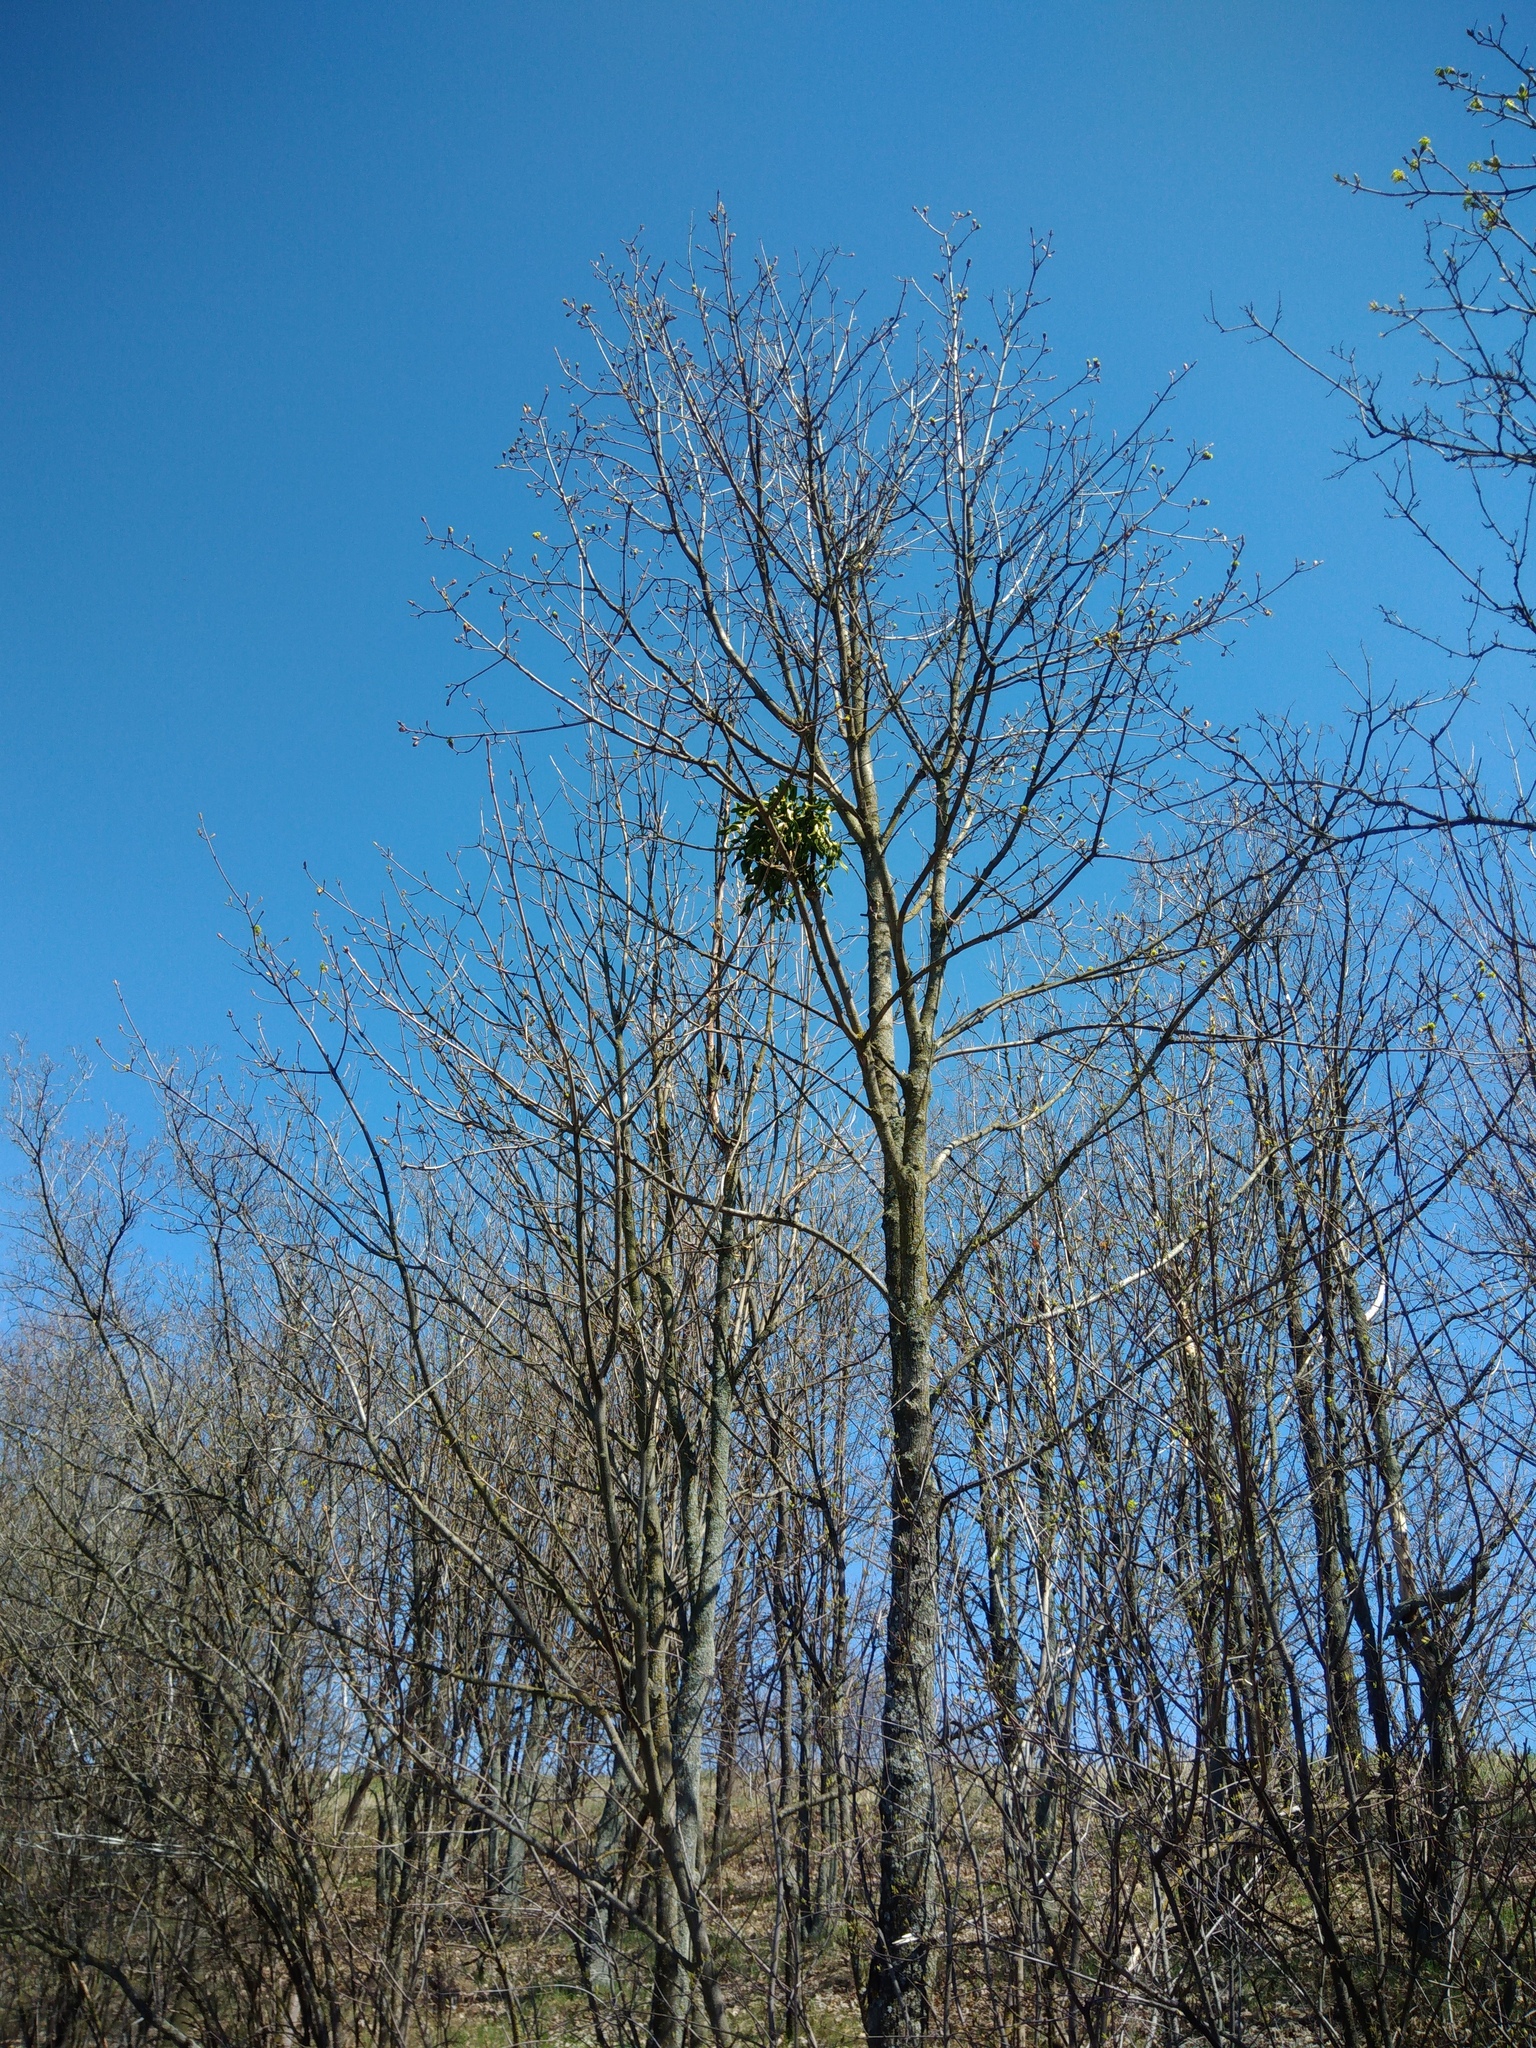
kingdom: Plantae
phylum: Tracheophyta
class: Magnoliopsida
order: Santalales
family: Viscaceae
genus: Viscum
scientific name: Viscum album
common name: Mistletoe
